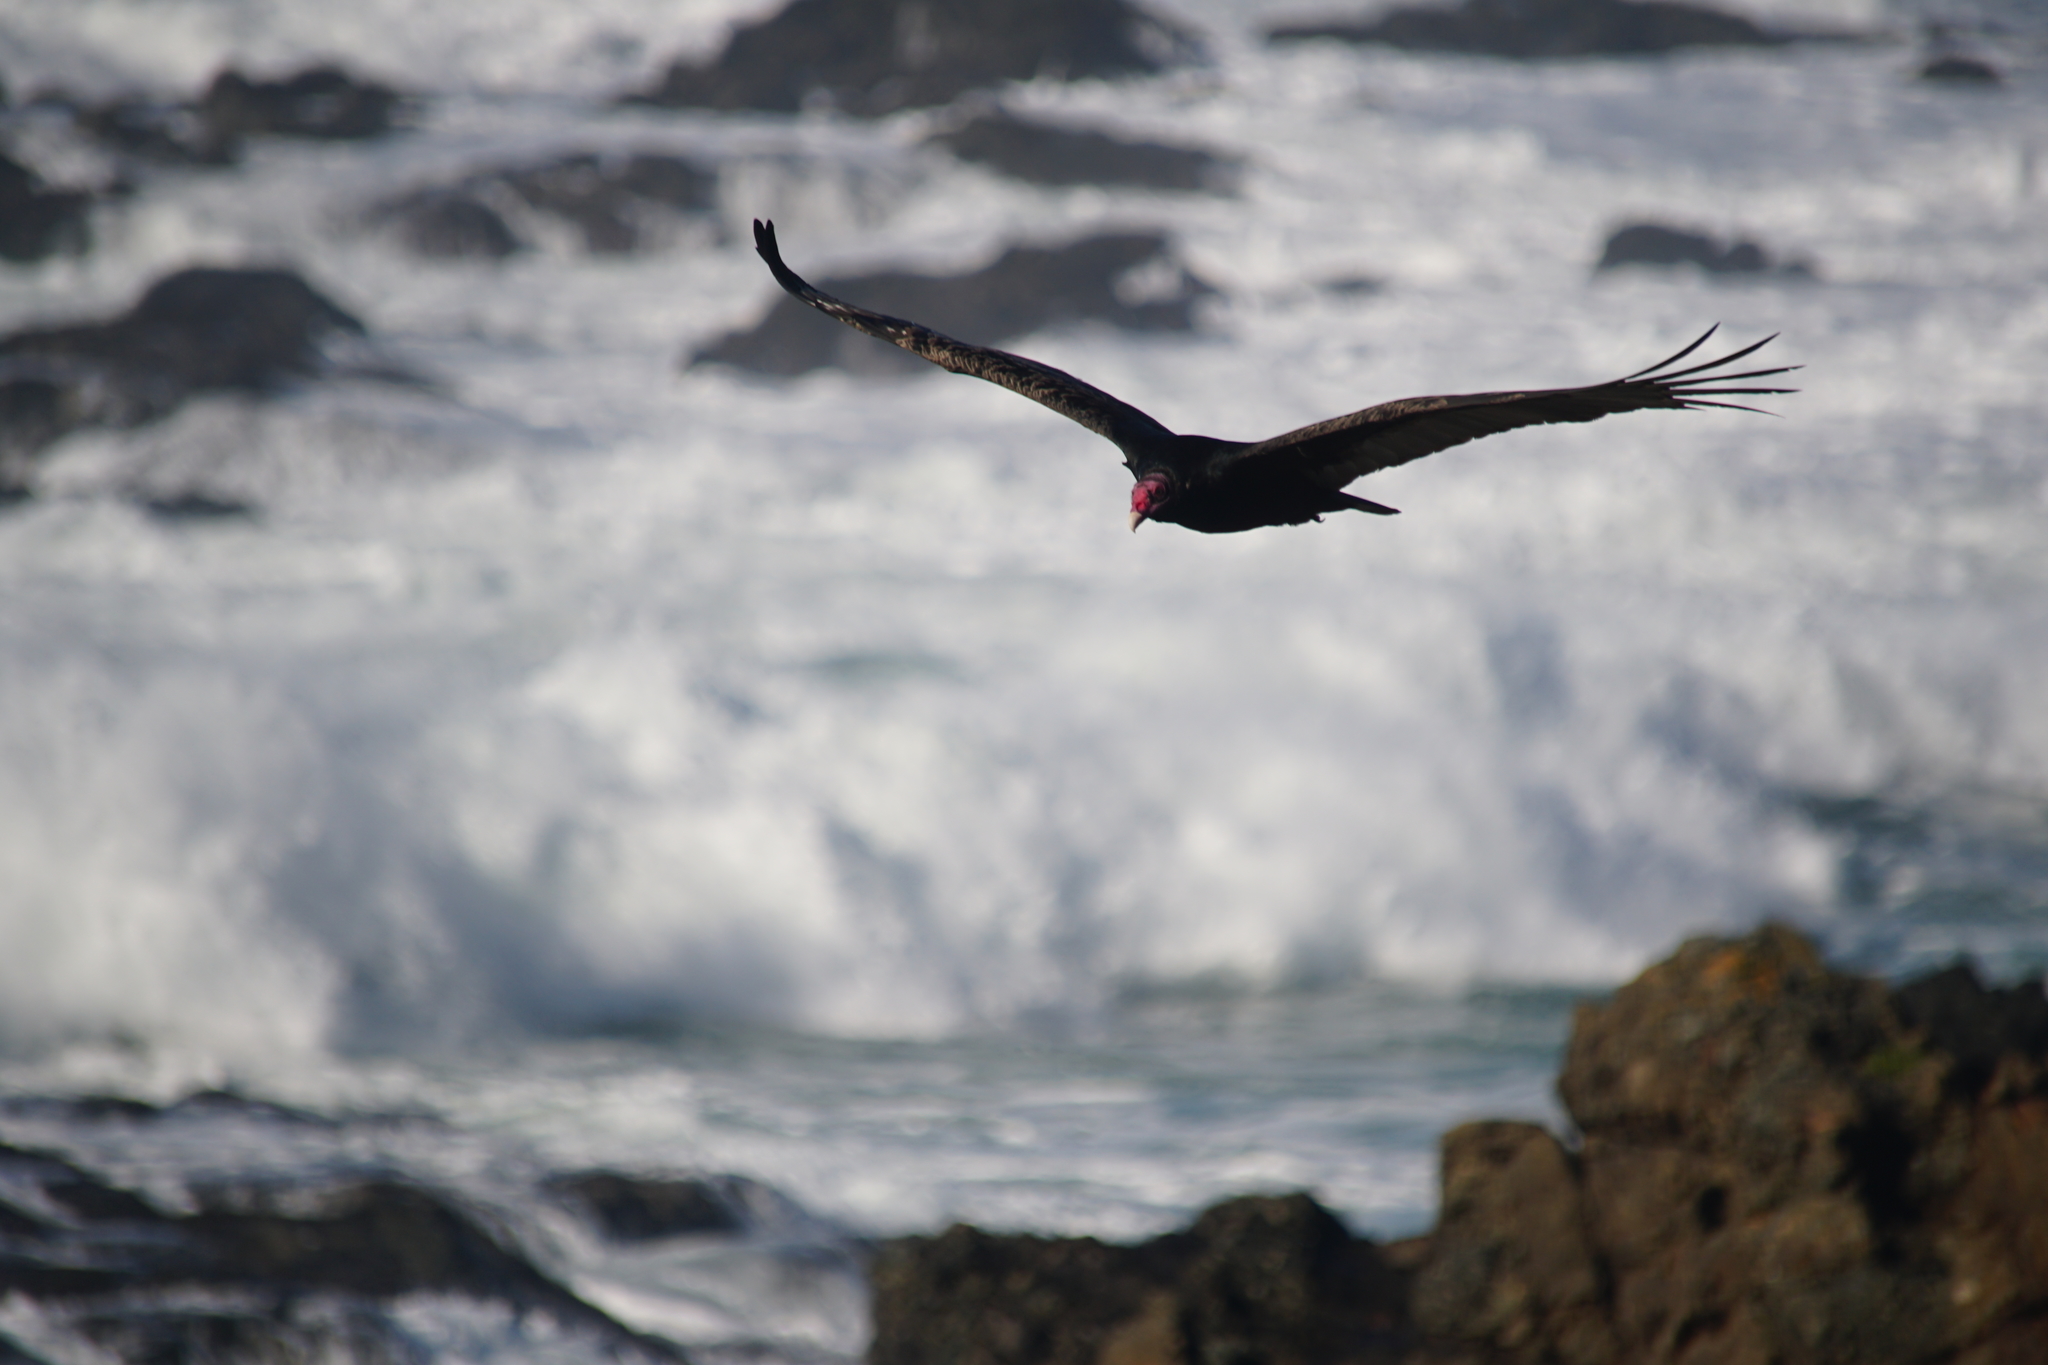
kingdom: Animalia
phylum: Chordata
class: Aves
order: Accipitriformes
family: Cathartidae
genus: Cathartes
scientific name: Cathartes aura
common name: Turkey vulture
